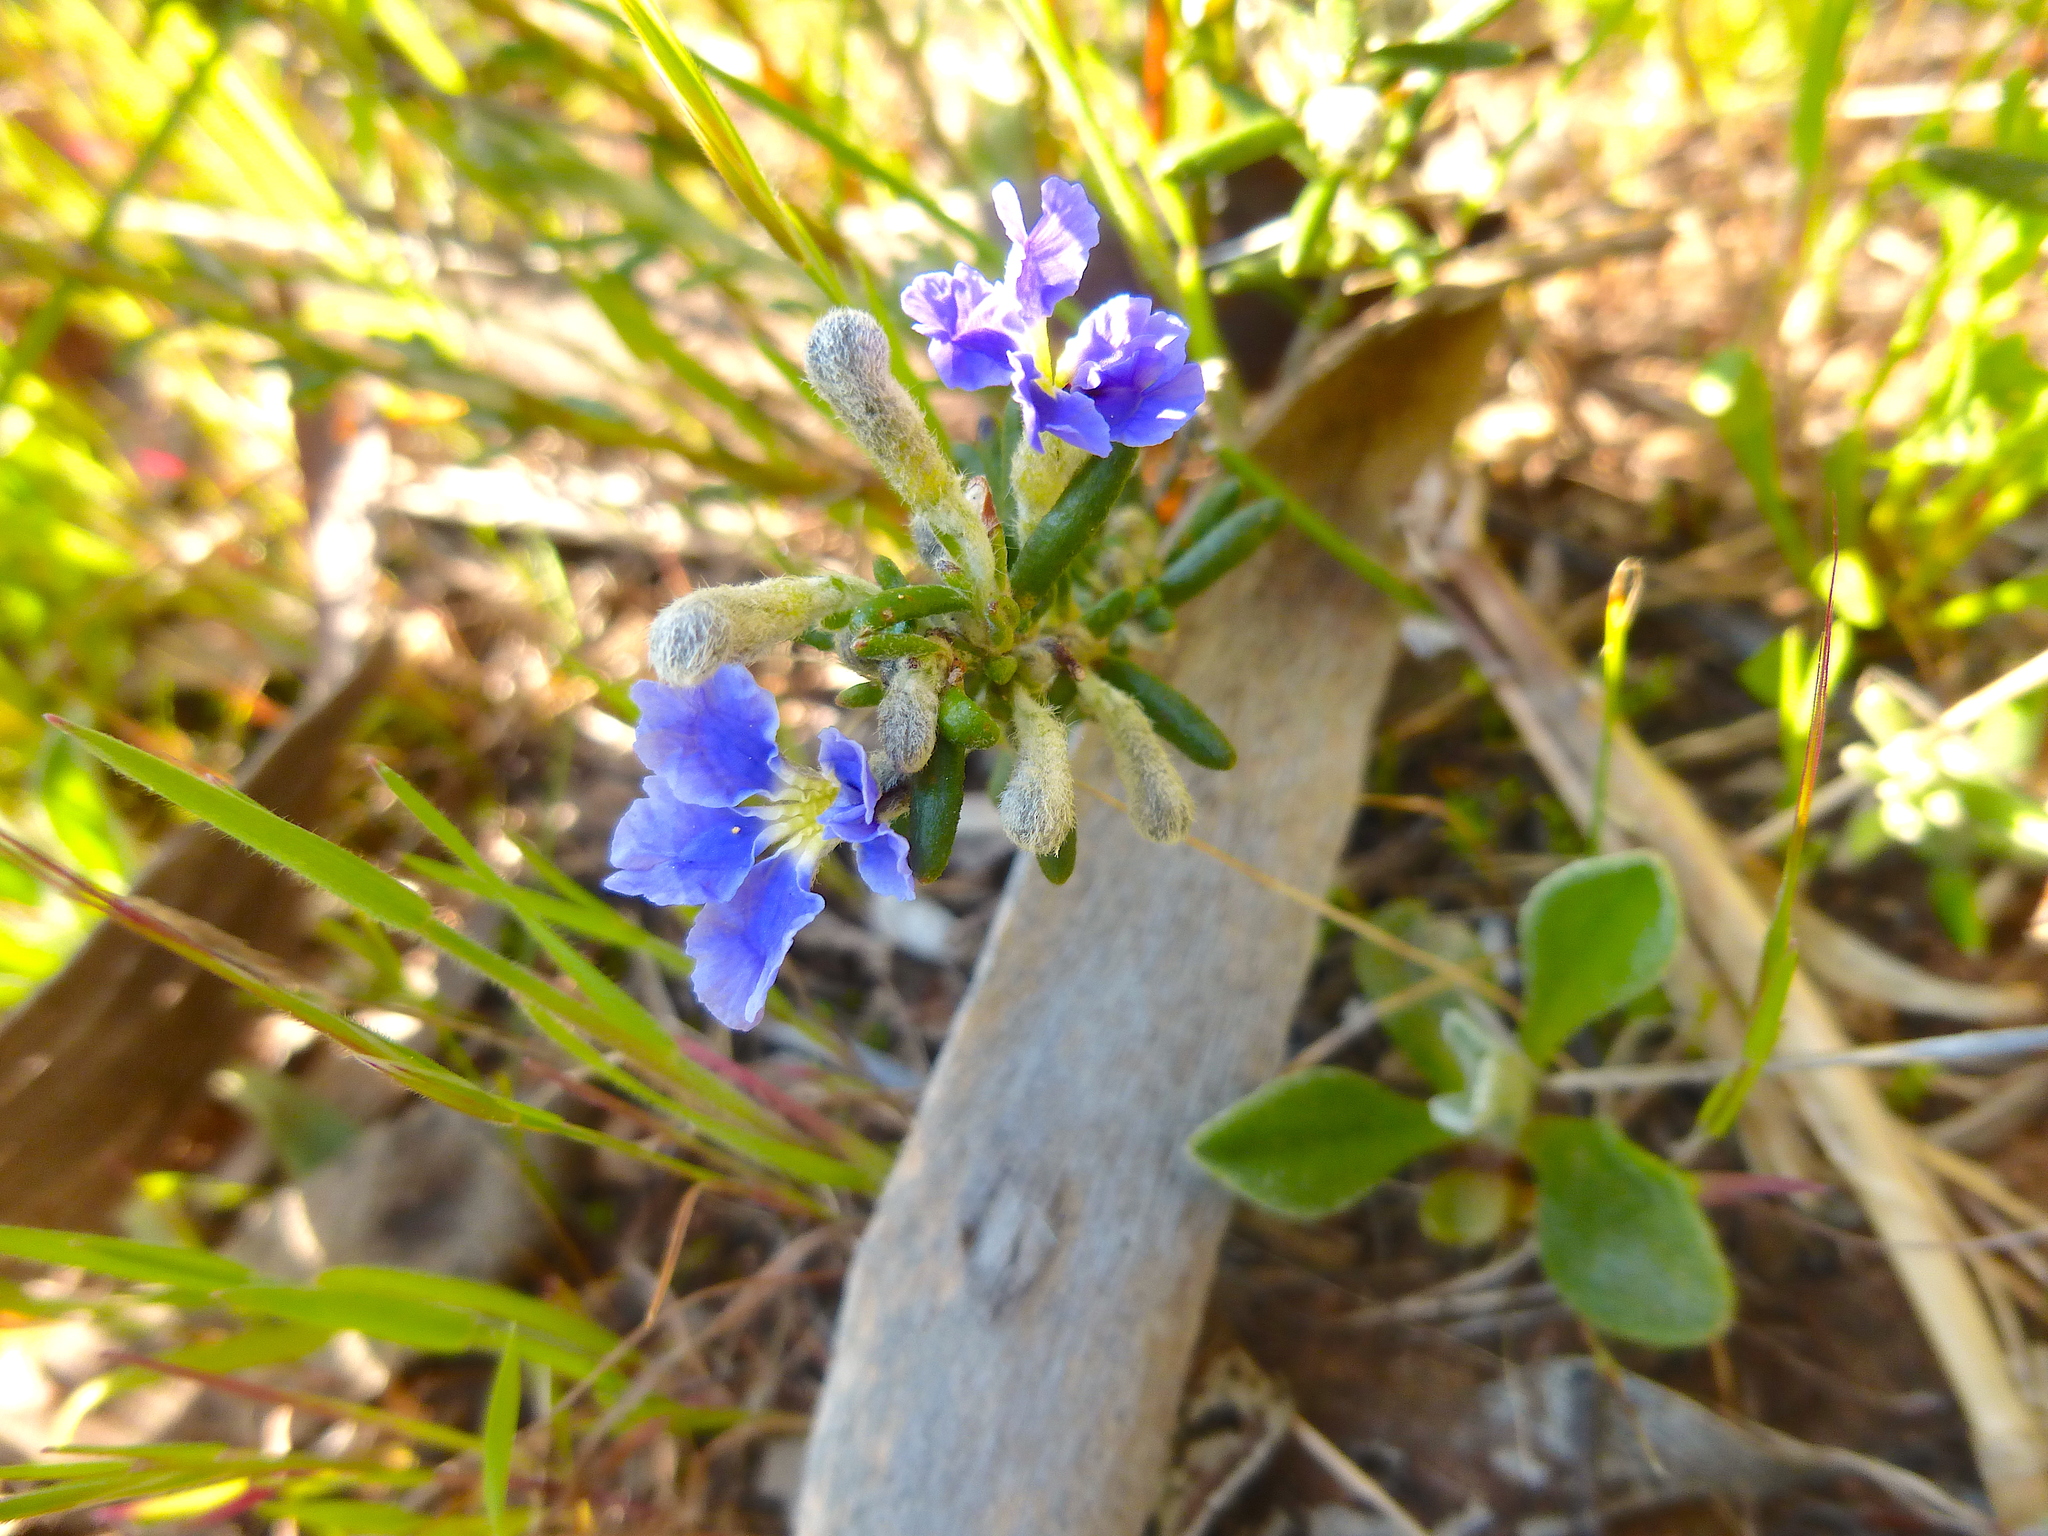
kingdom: Plantae
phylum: Tracheophyta
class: Magnoliopsida
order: Asterales
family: Goodeniaceae
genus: Dampiera
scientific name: Dampiera rosmarinifolia
